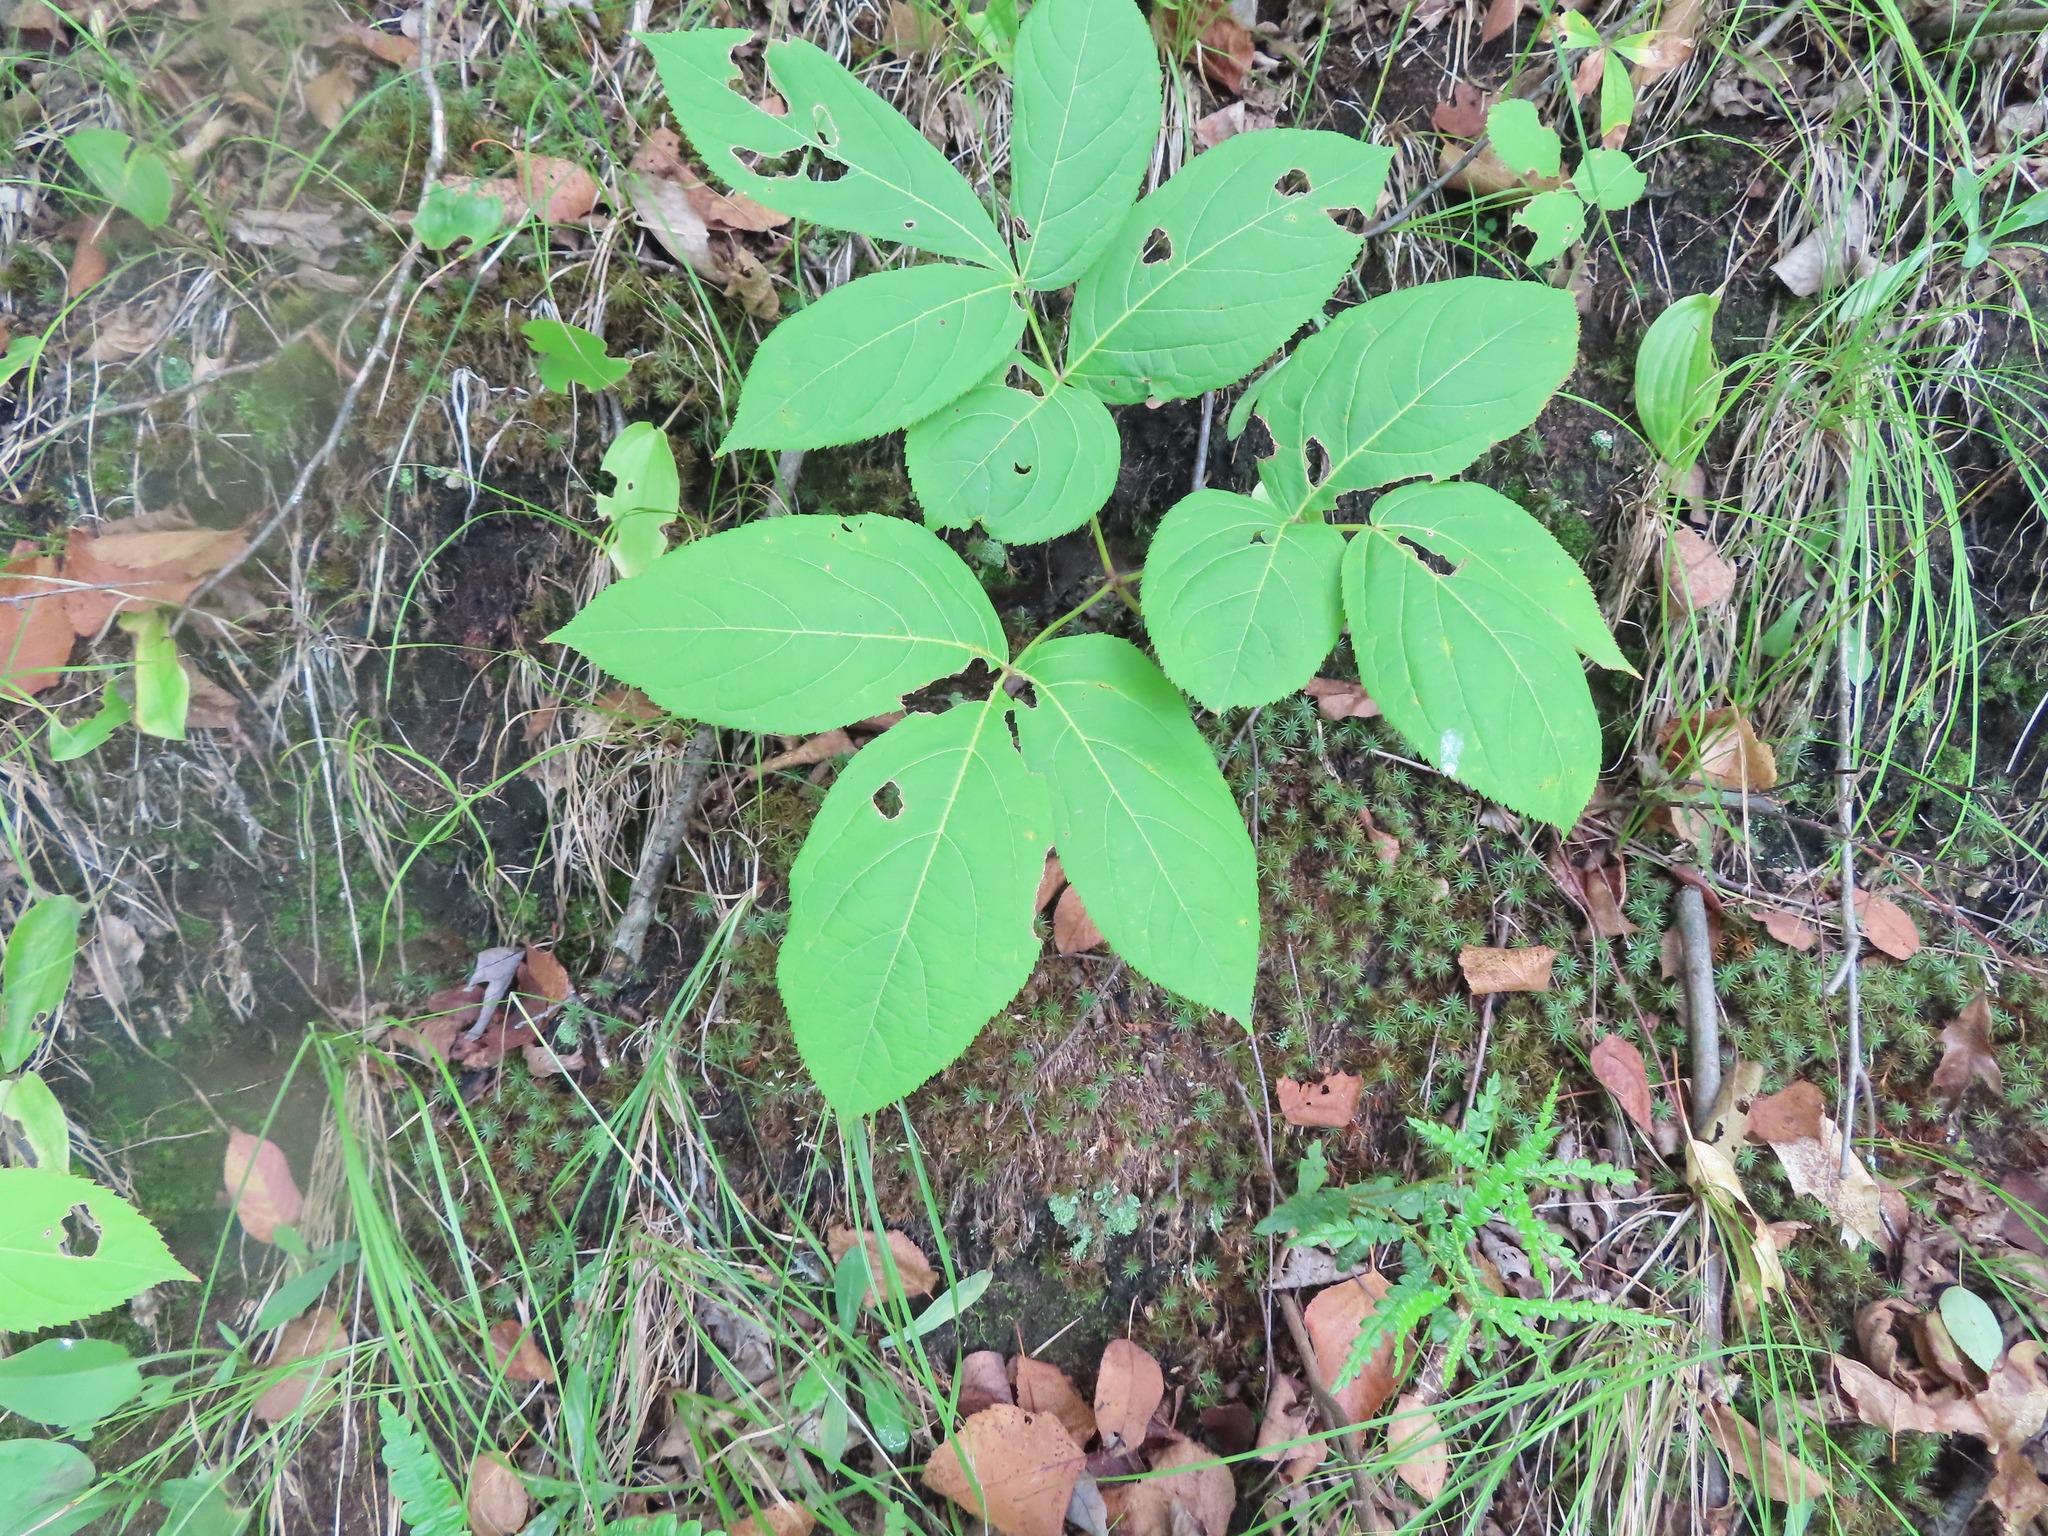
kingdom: Plantae
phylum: Tracheophyta
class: Magnoliopsida
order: Apiales
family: Araliaceae
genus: Aralia
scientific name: Aralia nudicaulis
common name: Wild sarsaparilla
